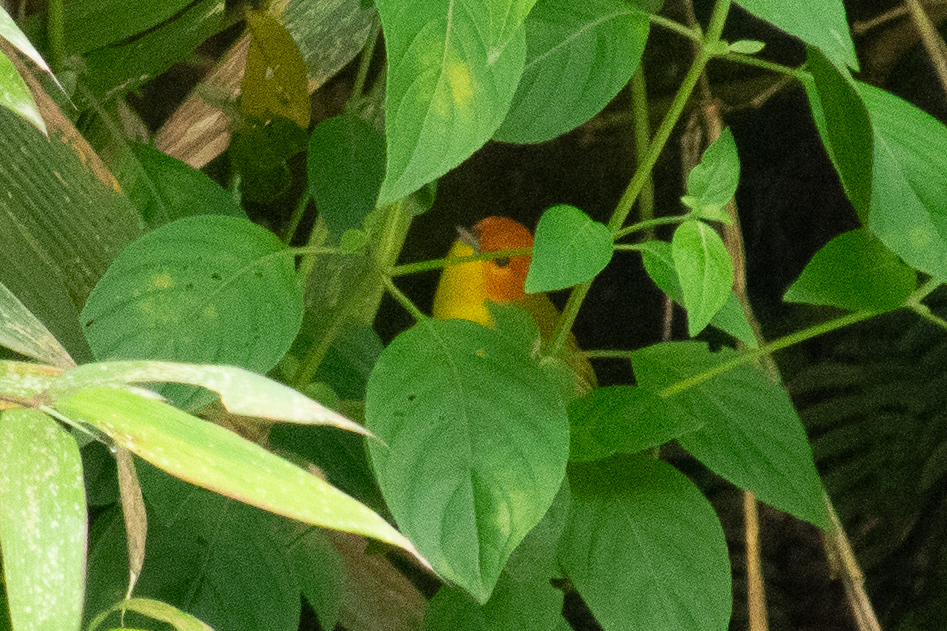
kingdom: Animalia
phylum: Chordata
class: Aves
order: Passeriformes
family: Thraupidae
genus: Thlypopsis
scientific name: Thlypopsis ruficeps
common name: Rust-and-yellow tanager
